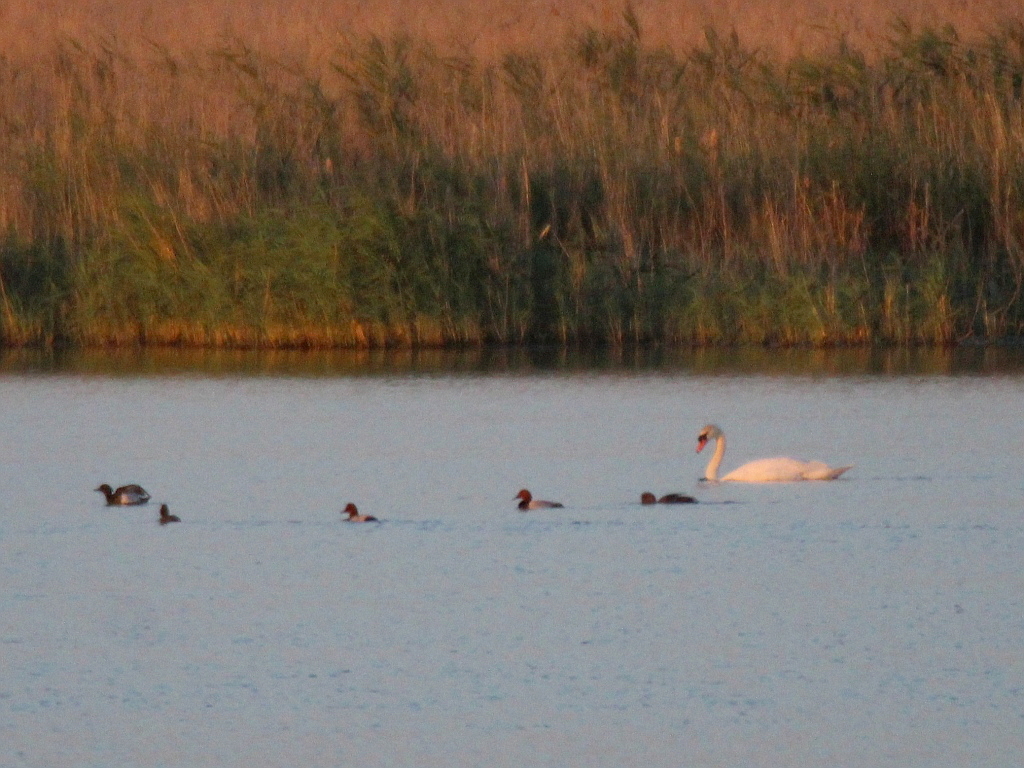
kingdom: Animalia
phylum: Chordata
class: Aves
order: Anseriformes
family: Anatidae
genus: Cygnus
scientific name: Cygnus olor
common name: Mute swan
